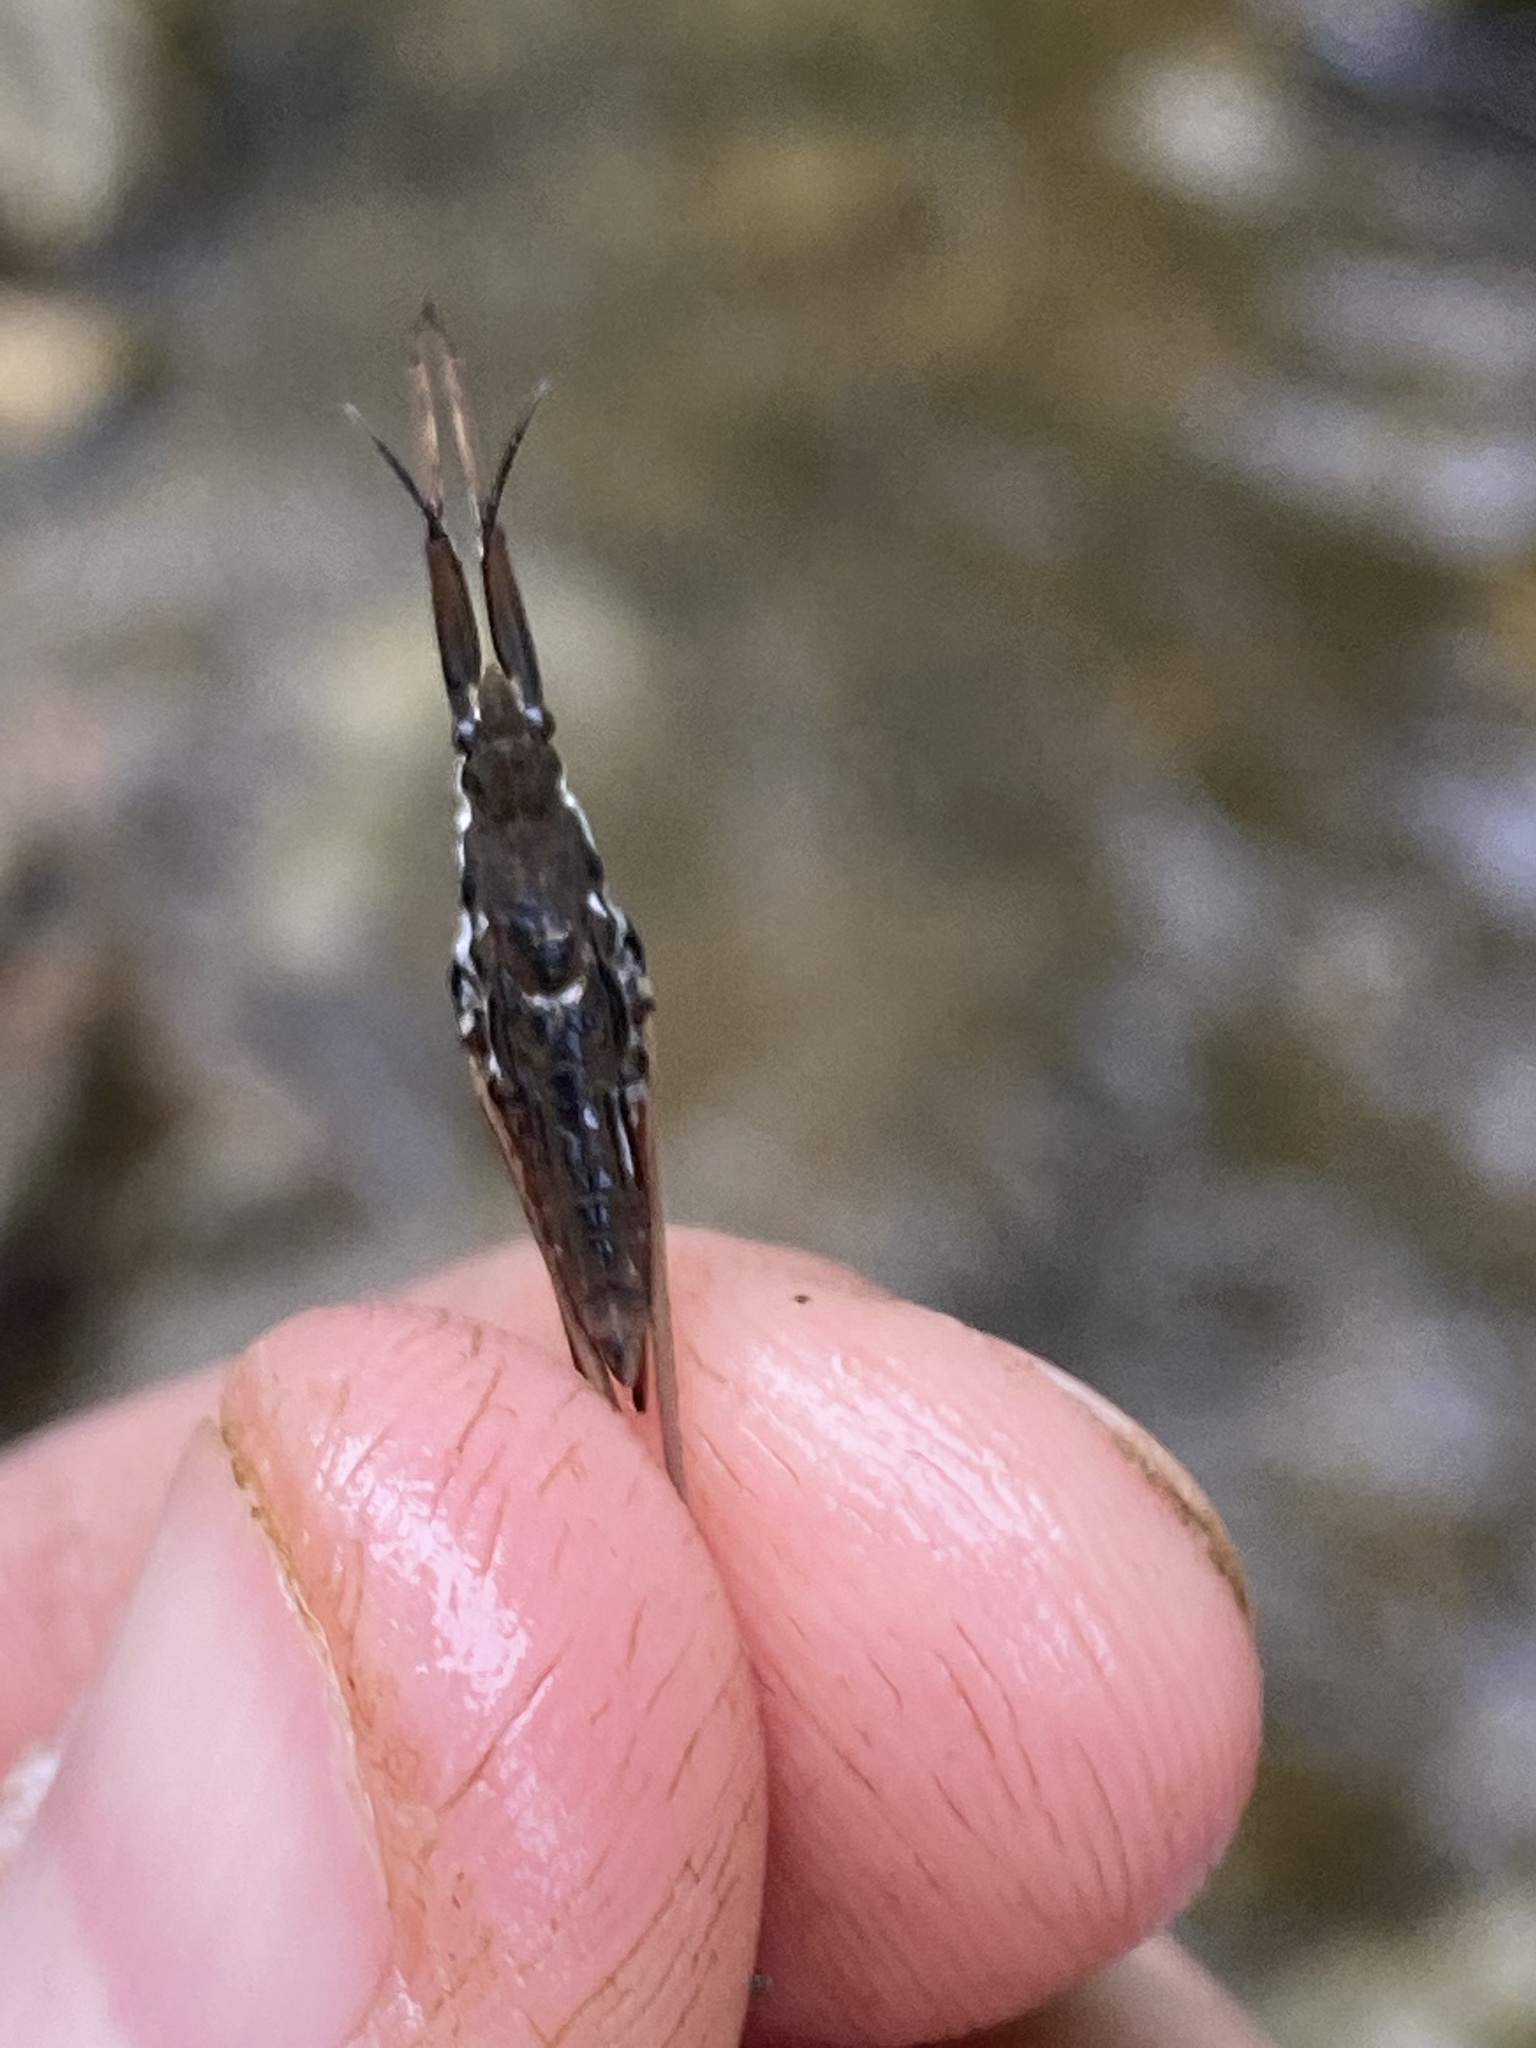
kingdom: Animalia
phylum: Arthropoda
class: Insecta
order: Hemiptera
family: Gerridae
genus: Aquarius
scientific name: Aquarius
